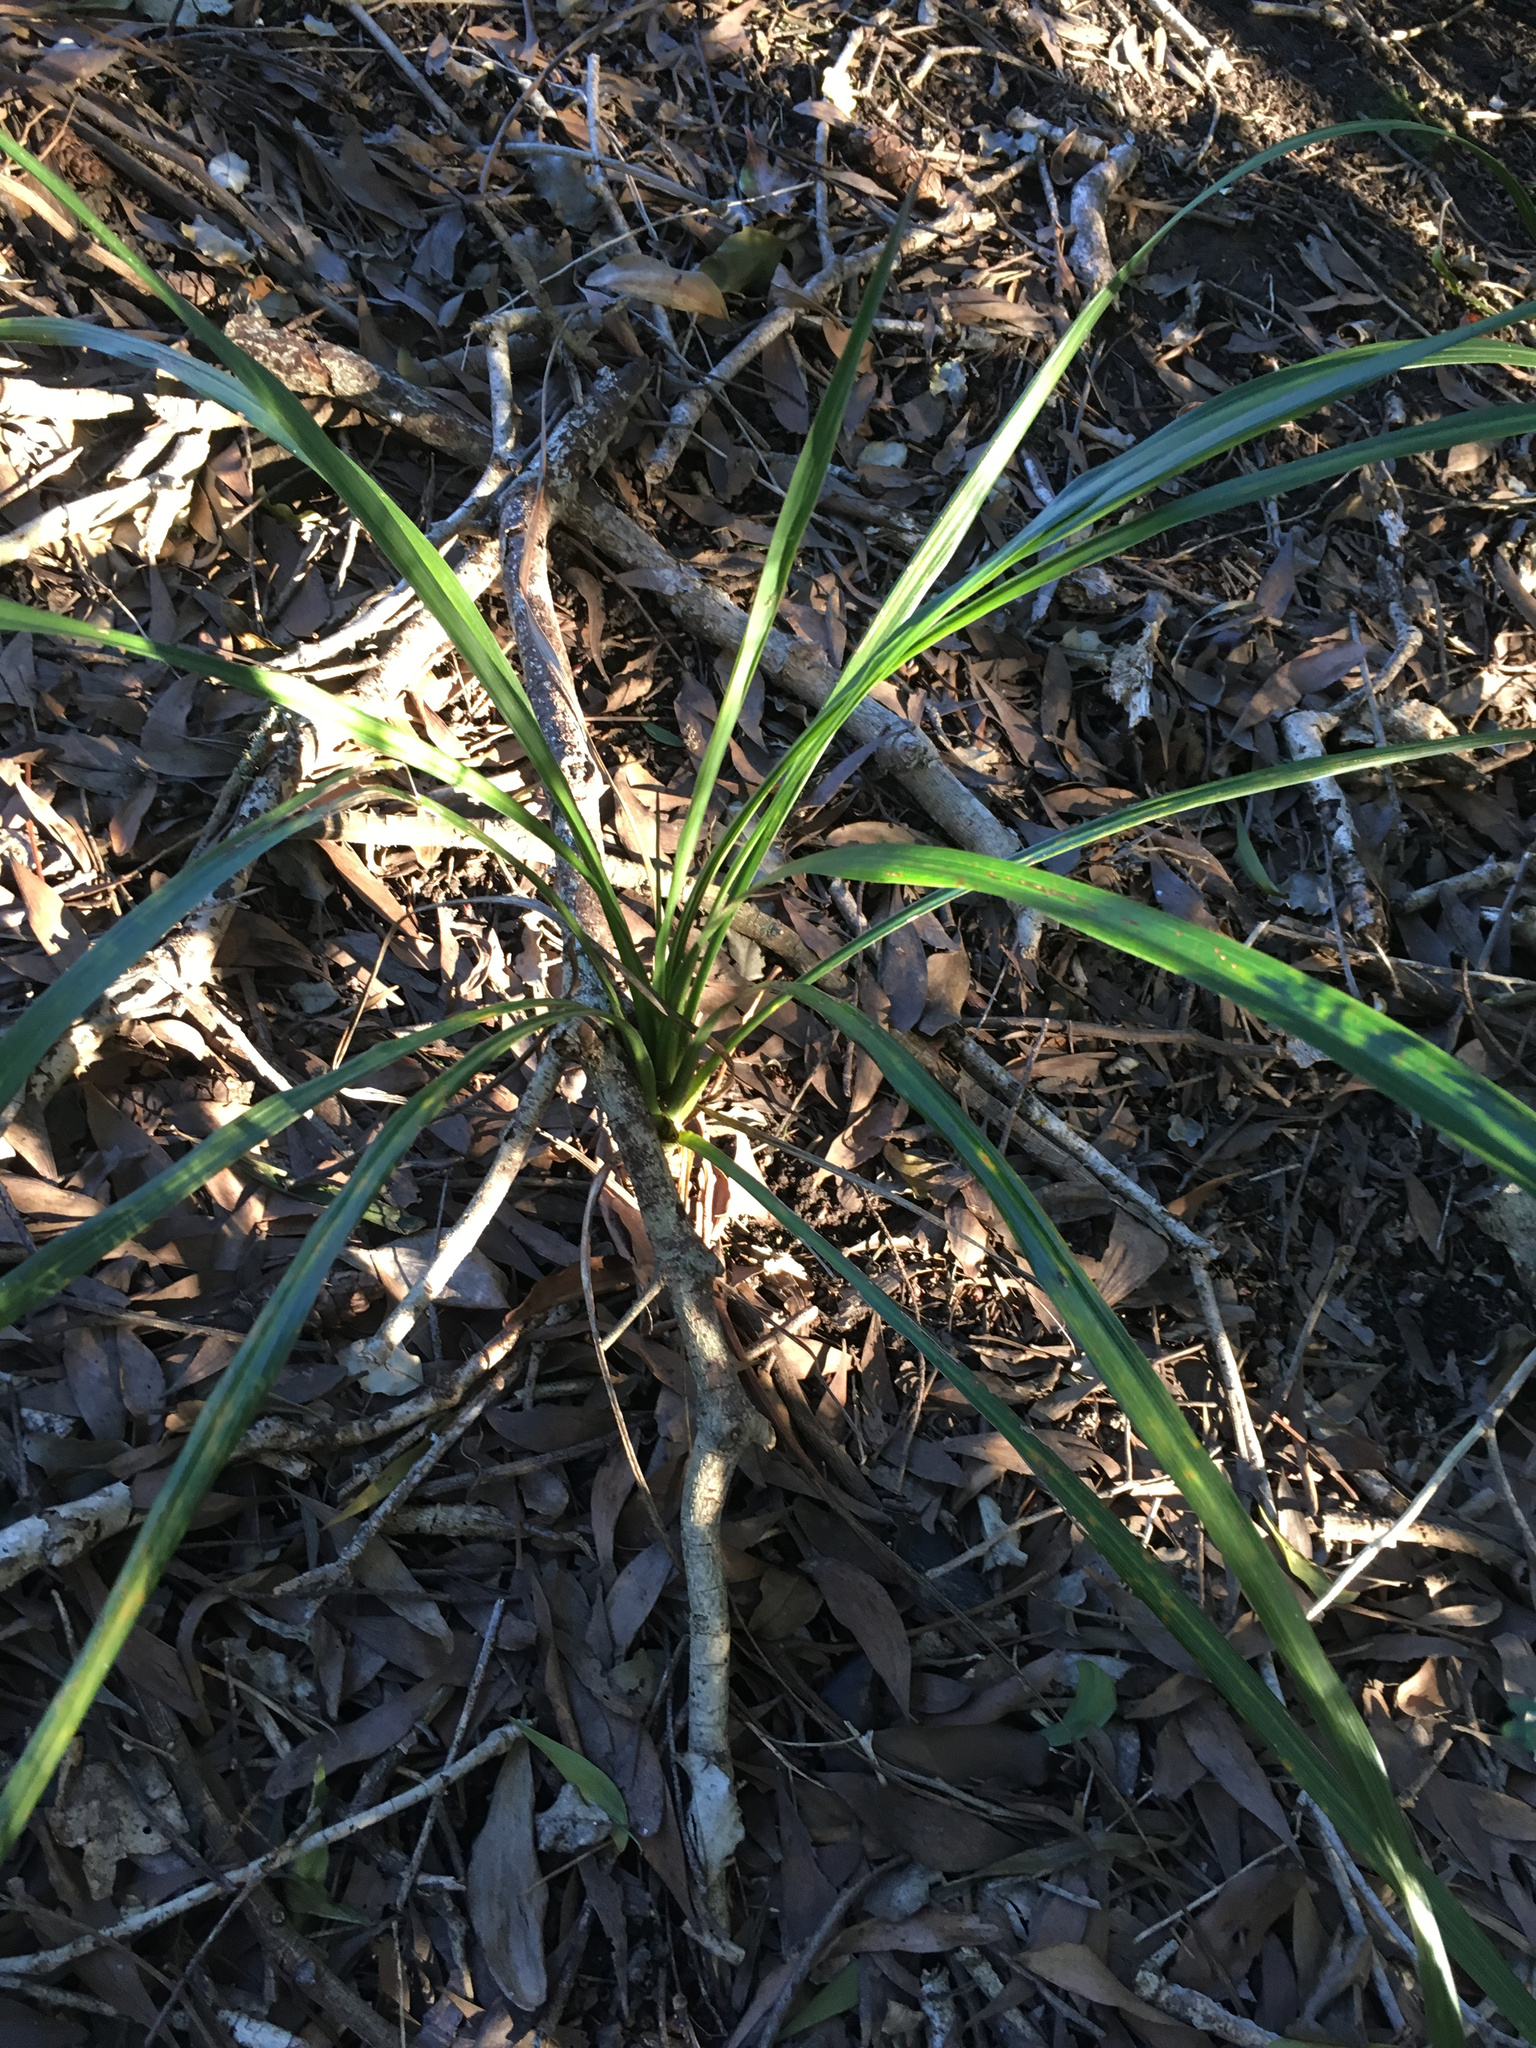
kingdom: Plantae
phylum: Tracheophyta
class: Liliopsida
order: Asparagales
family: Asparagaceae
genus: Cordyline
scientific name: Cordyline australis
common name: Cabbage-palm
